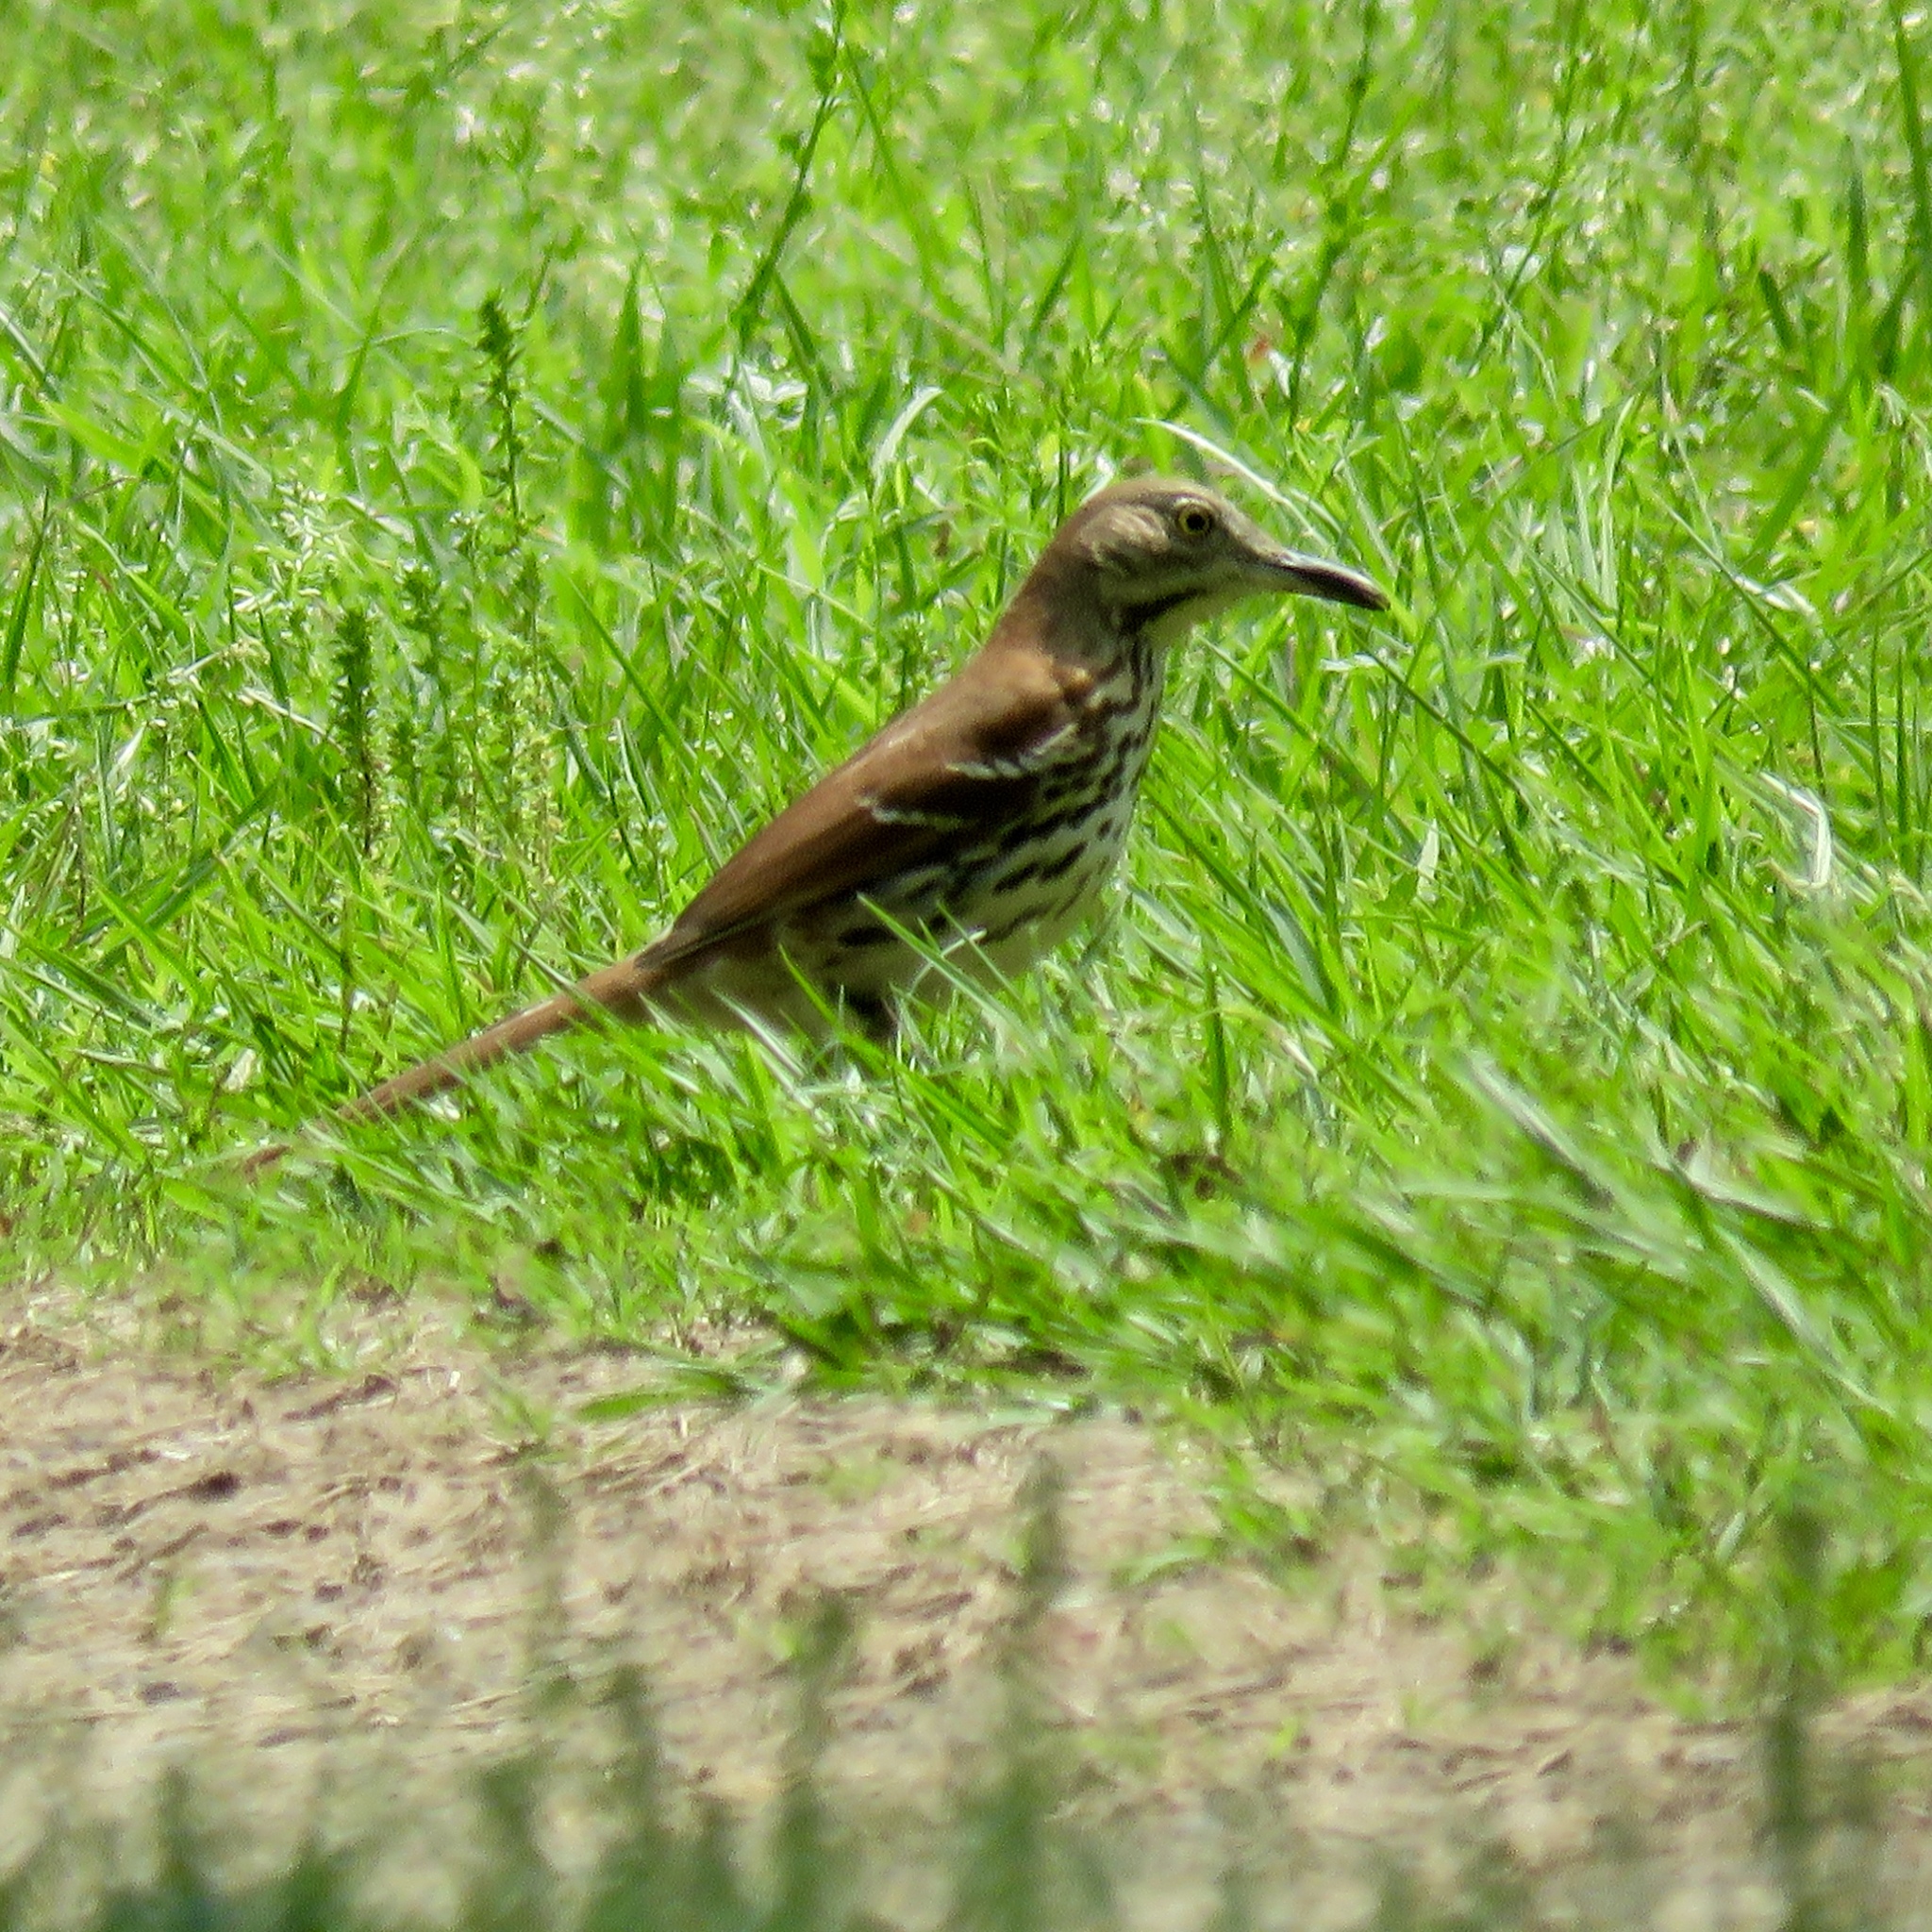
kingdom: Animalia
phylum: Chordata
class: Aves
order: Passeriformes
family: Mimidae
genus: Toxostoma
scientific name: Toxostoma rufum
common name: Brown thrasher
